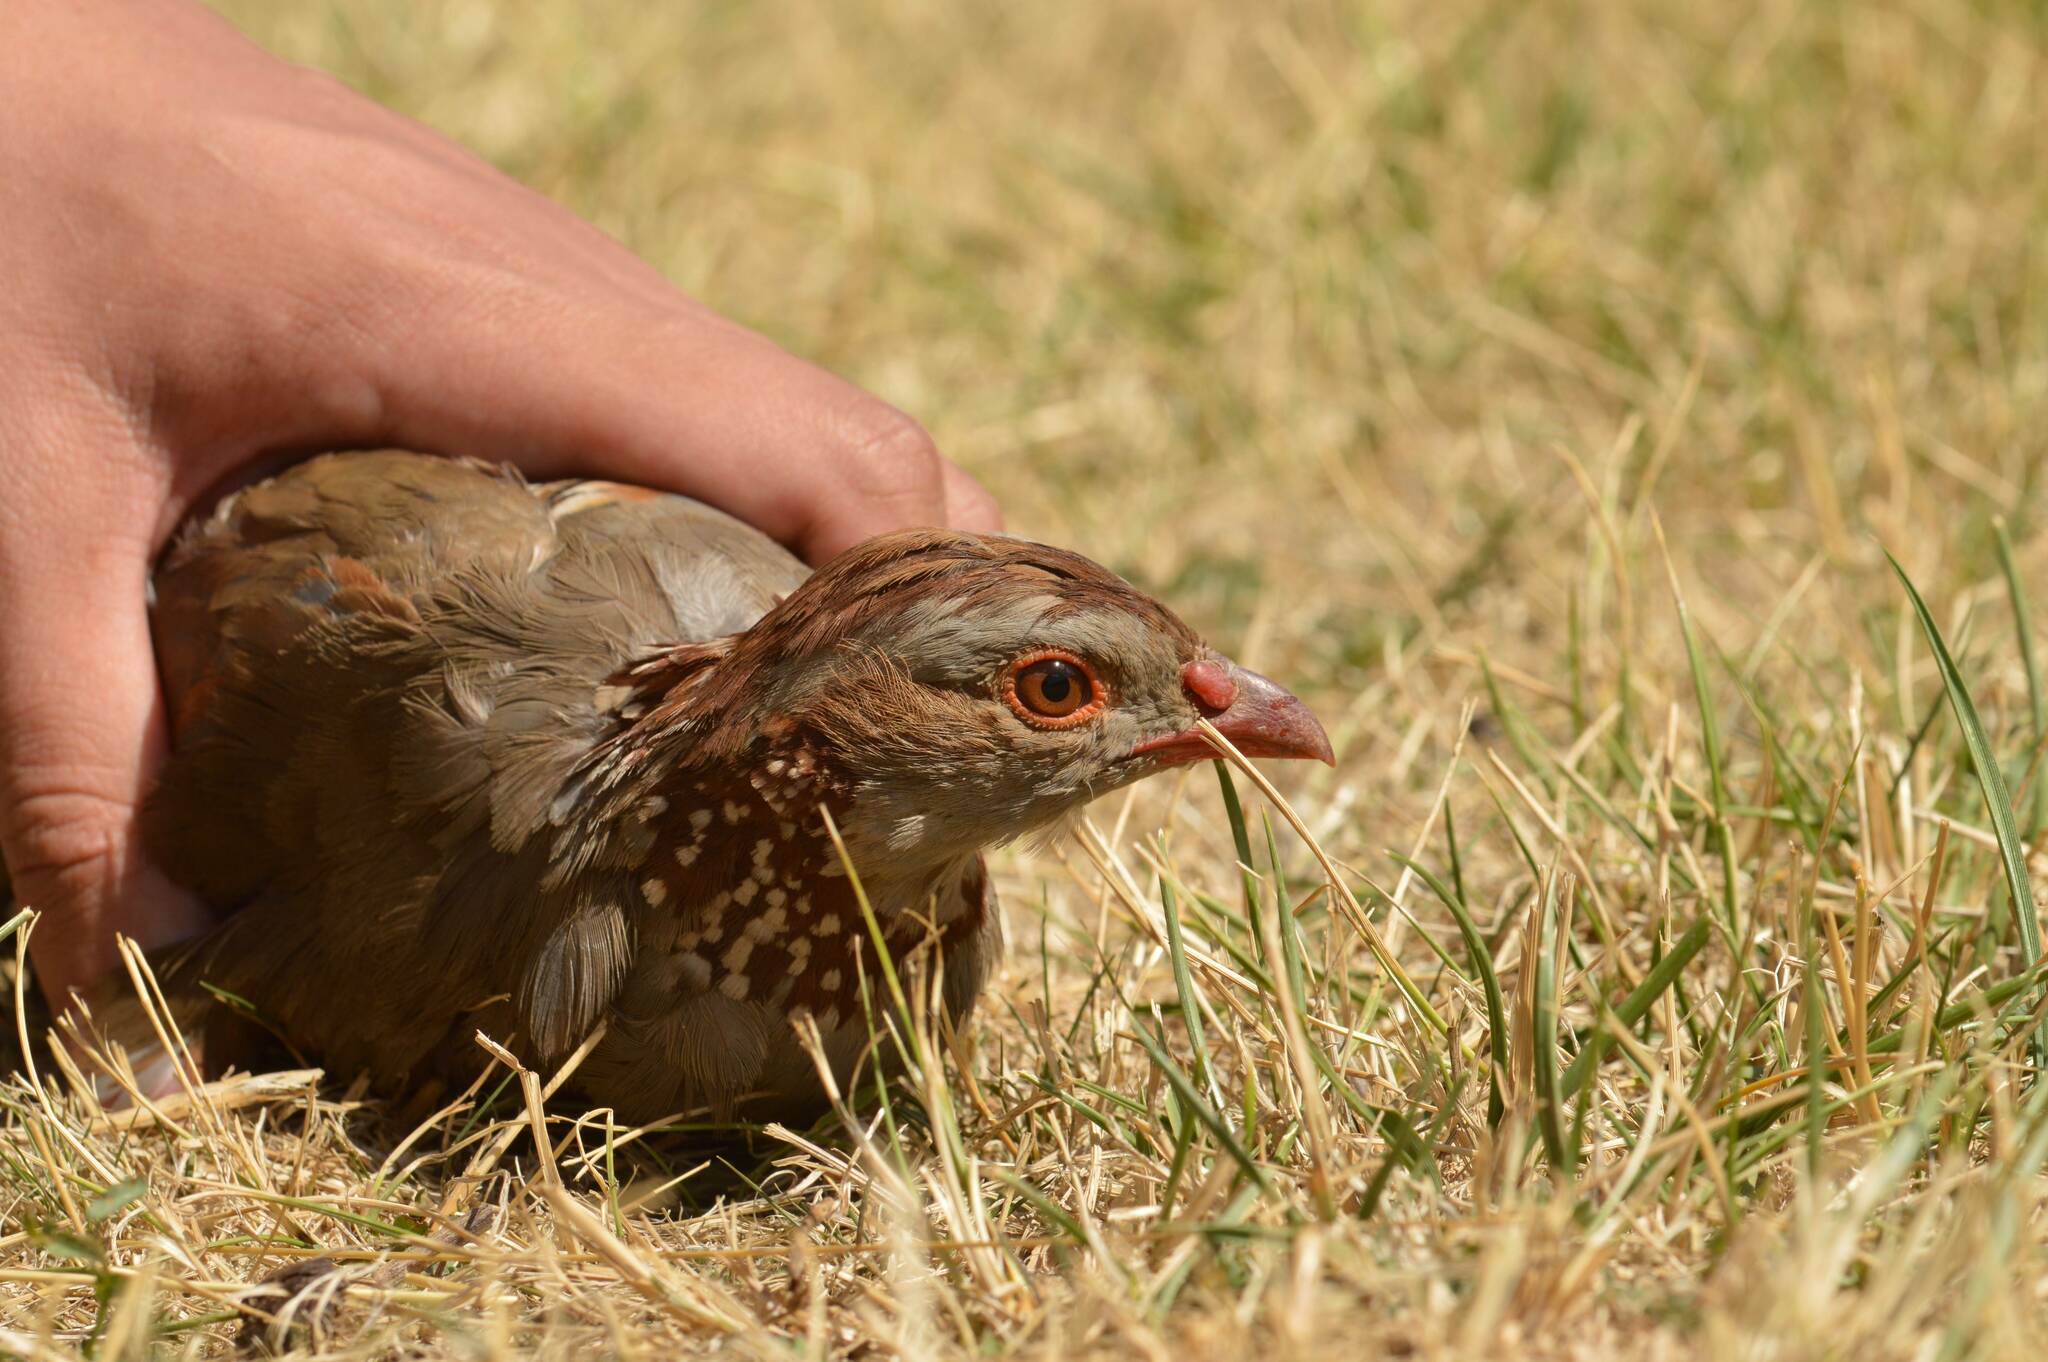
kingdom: Animalia
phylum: Chordata
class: Aves
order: Galliformes
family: Phasianidae
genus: Alectoris
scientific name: Alectoris barbara
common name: Barbary partridge
